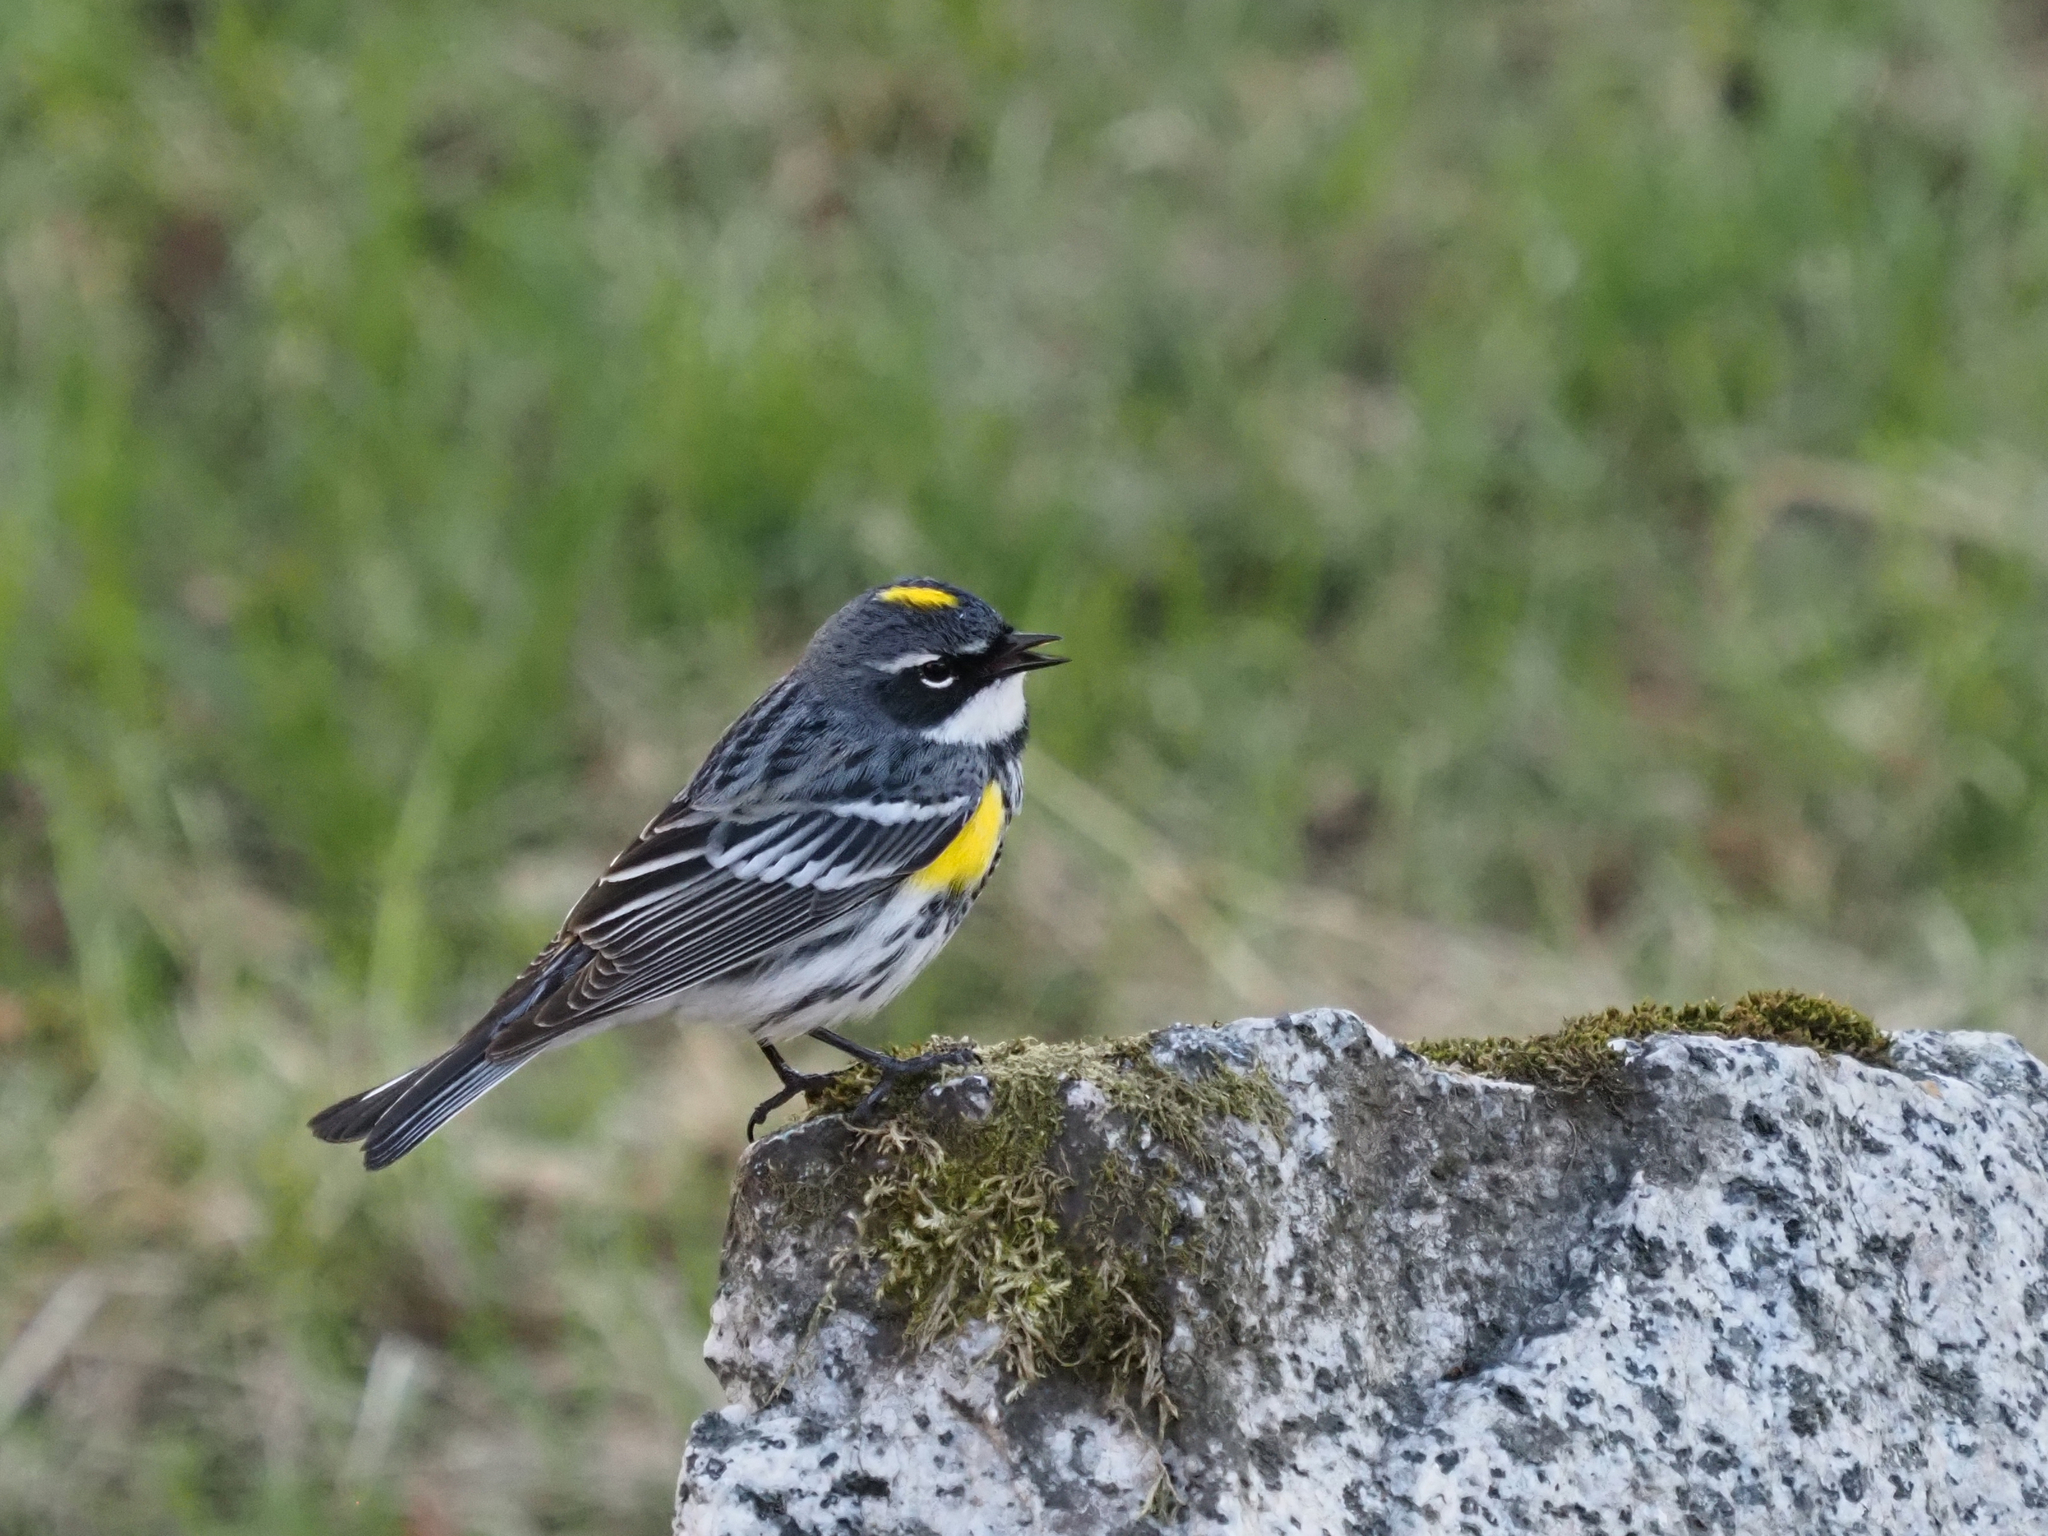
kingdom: Animalia
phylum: Chordata
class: Aves
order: Passeriformes
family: Parulidae
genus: Setophaga
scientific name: Setophaga coronata
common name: Myrtle warbler
